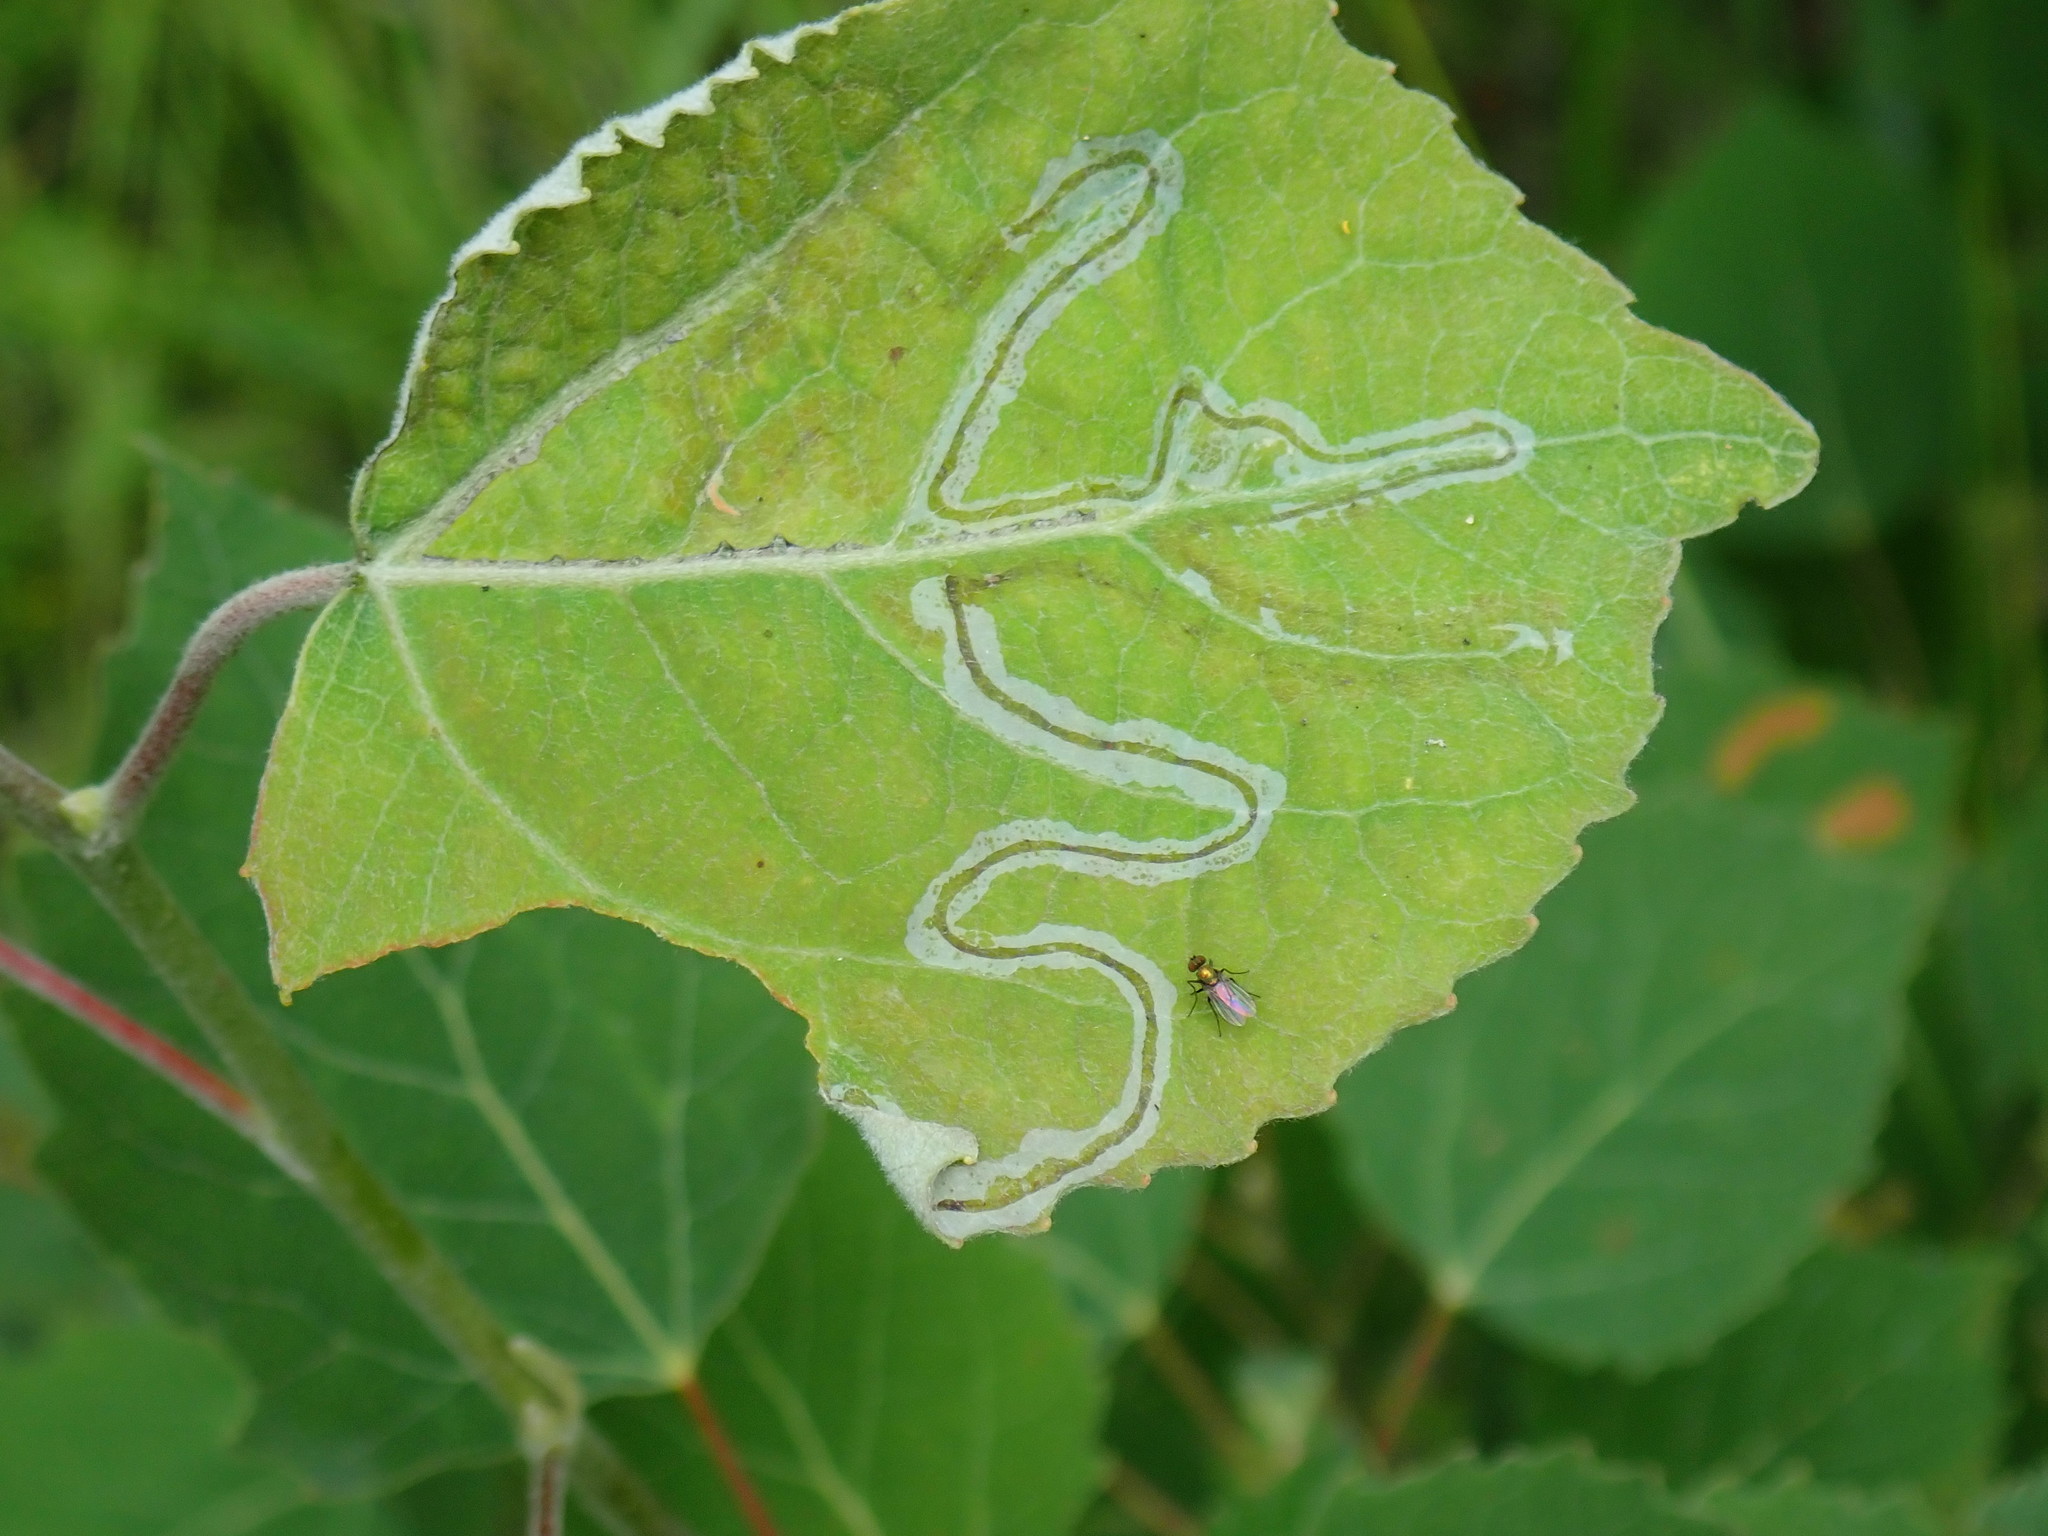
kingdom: Animalia
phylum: Arthropoda
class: Insecta
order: Lepidoptera
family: Gracillariidae
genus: Phyllocnistis
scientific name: Phyllocnistis populiella
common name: Aspen serpentine leafminer moth
